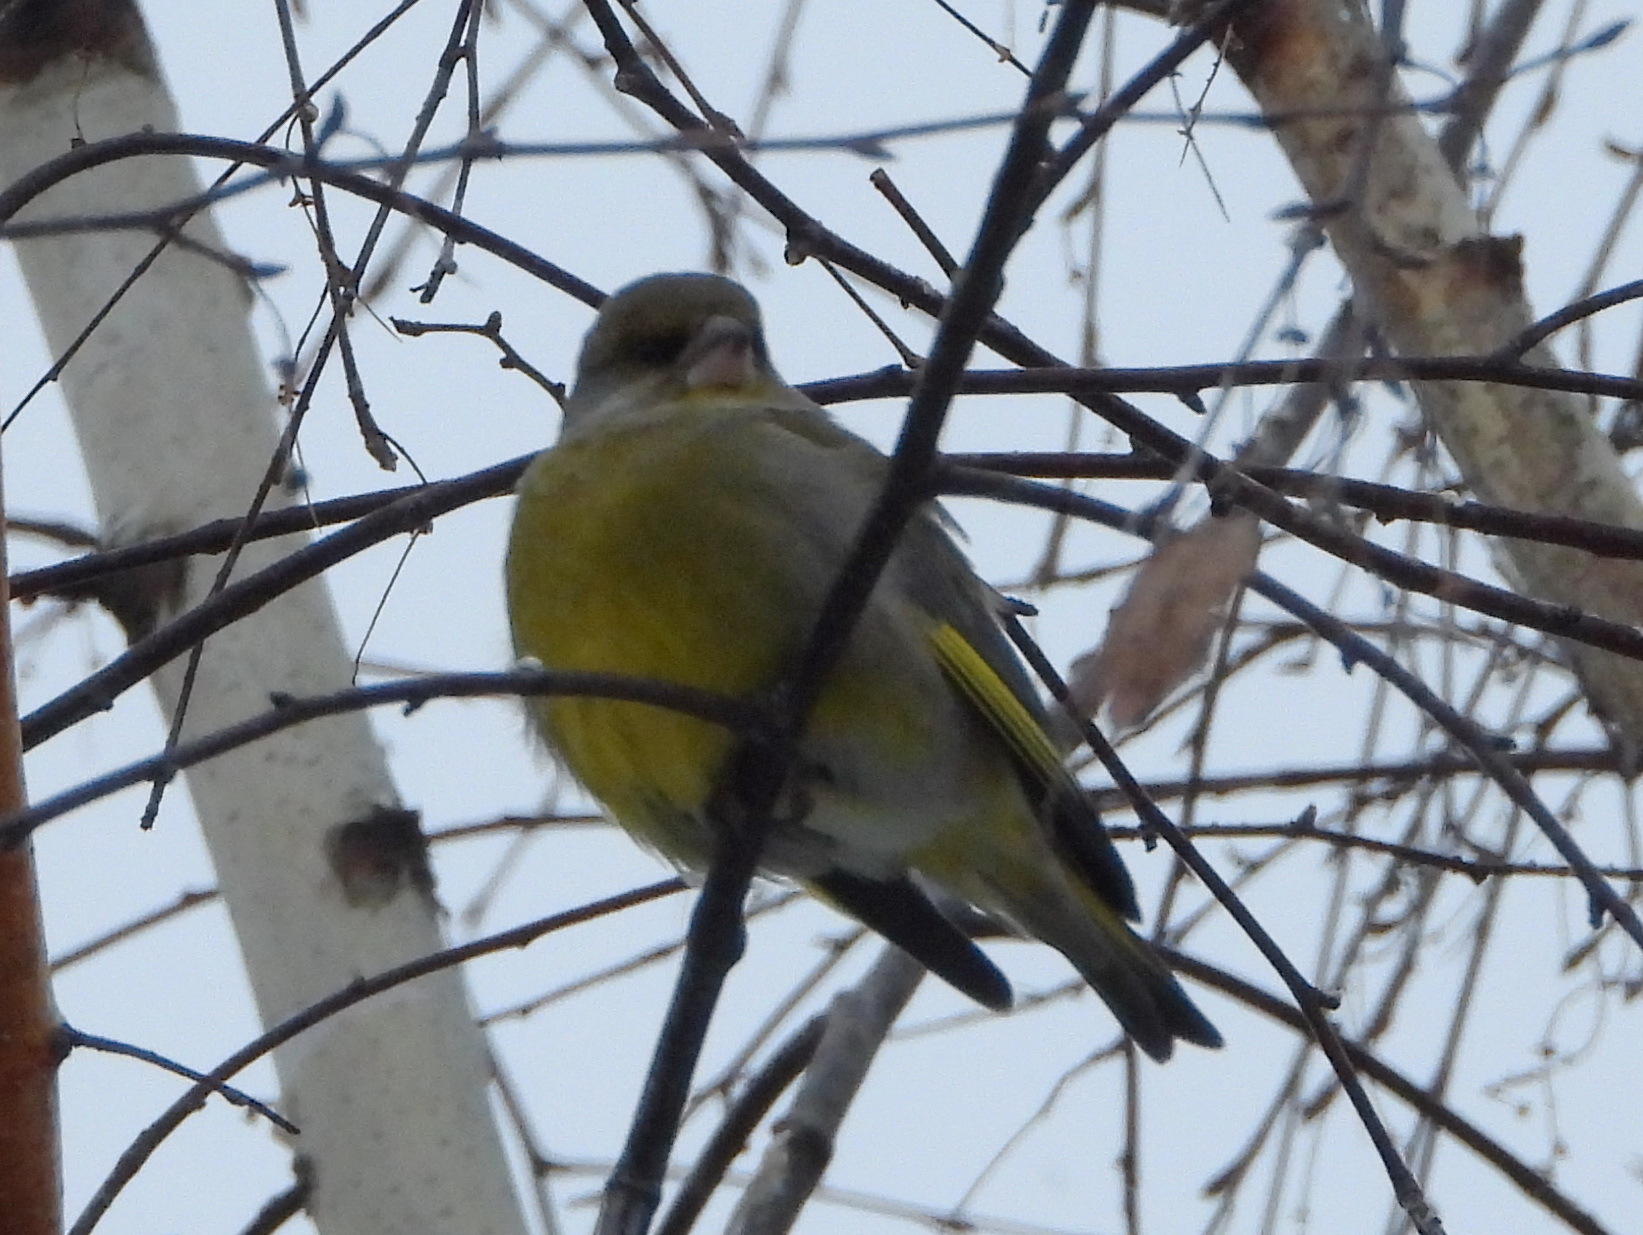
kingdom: Plantae
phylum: Tracheophyta
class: Liliopsida
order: Poales
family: Poaceae
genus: Chloris
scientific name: Chloris chloris
